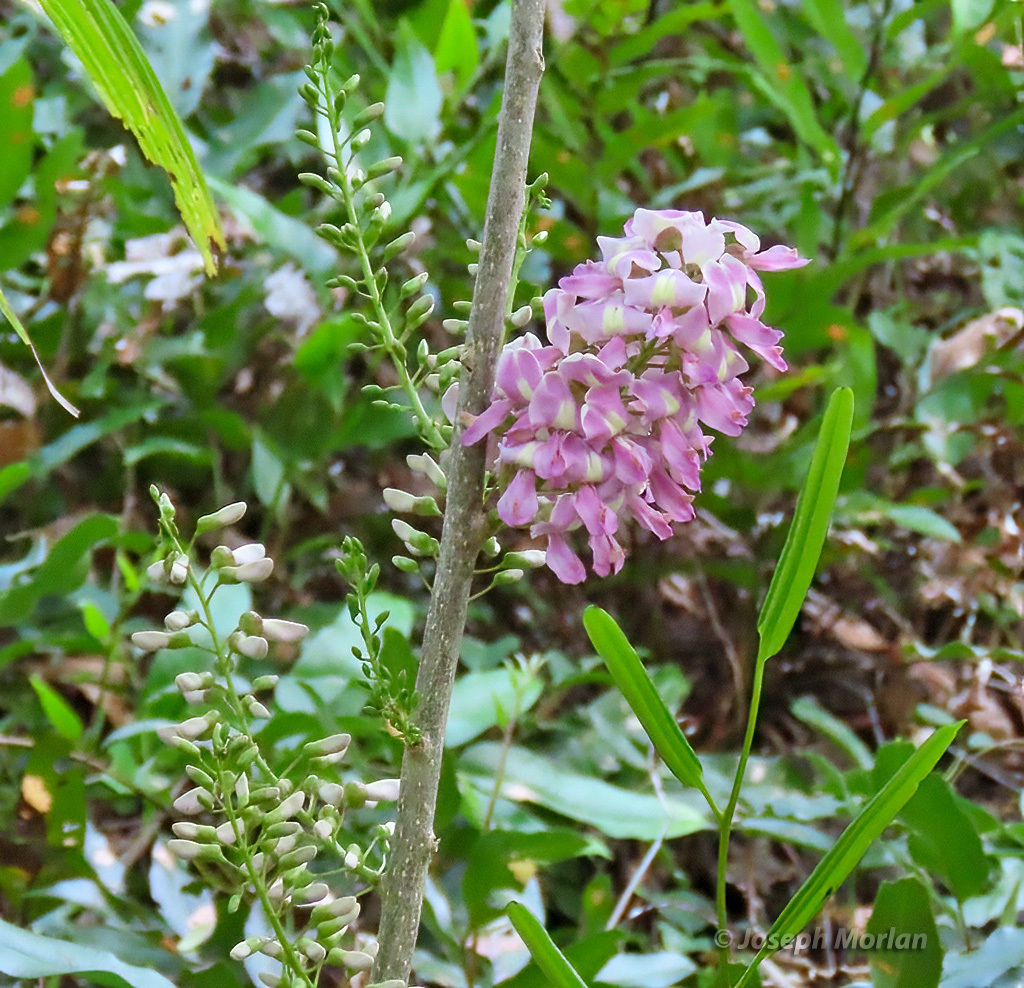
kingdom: Plantae
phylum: Tracheophyta
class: Magnoliopsida
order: Fabales
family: Fabaceae
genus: Gliricidia
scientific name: Gliricidia sepium
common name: Quickstick
